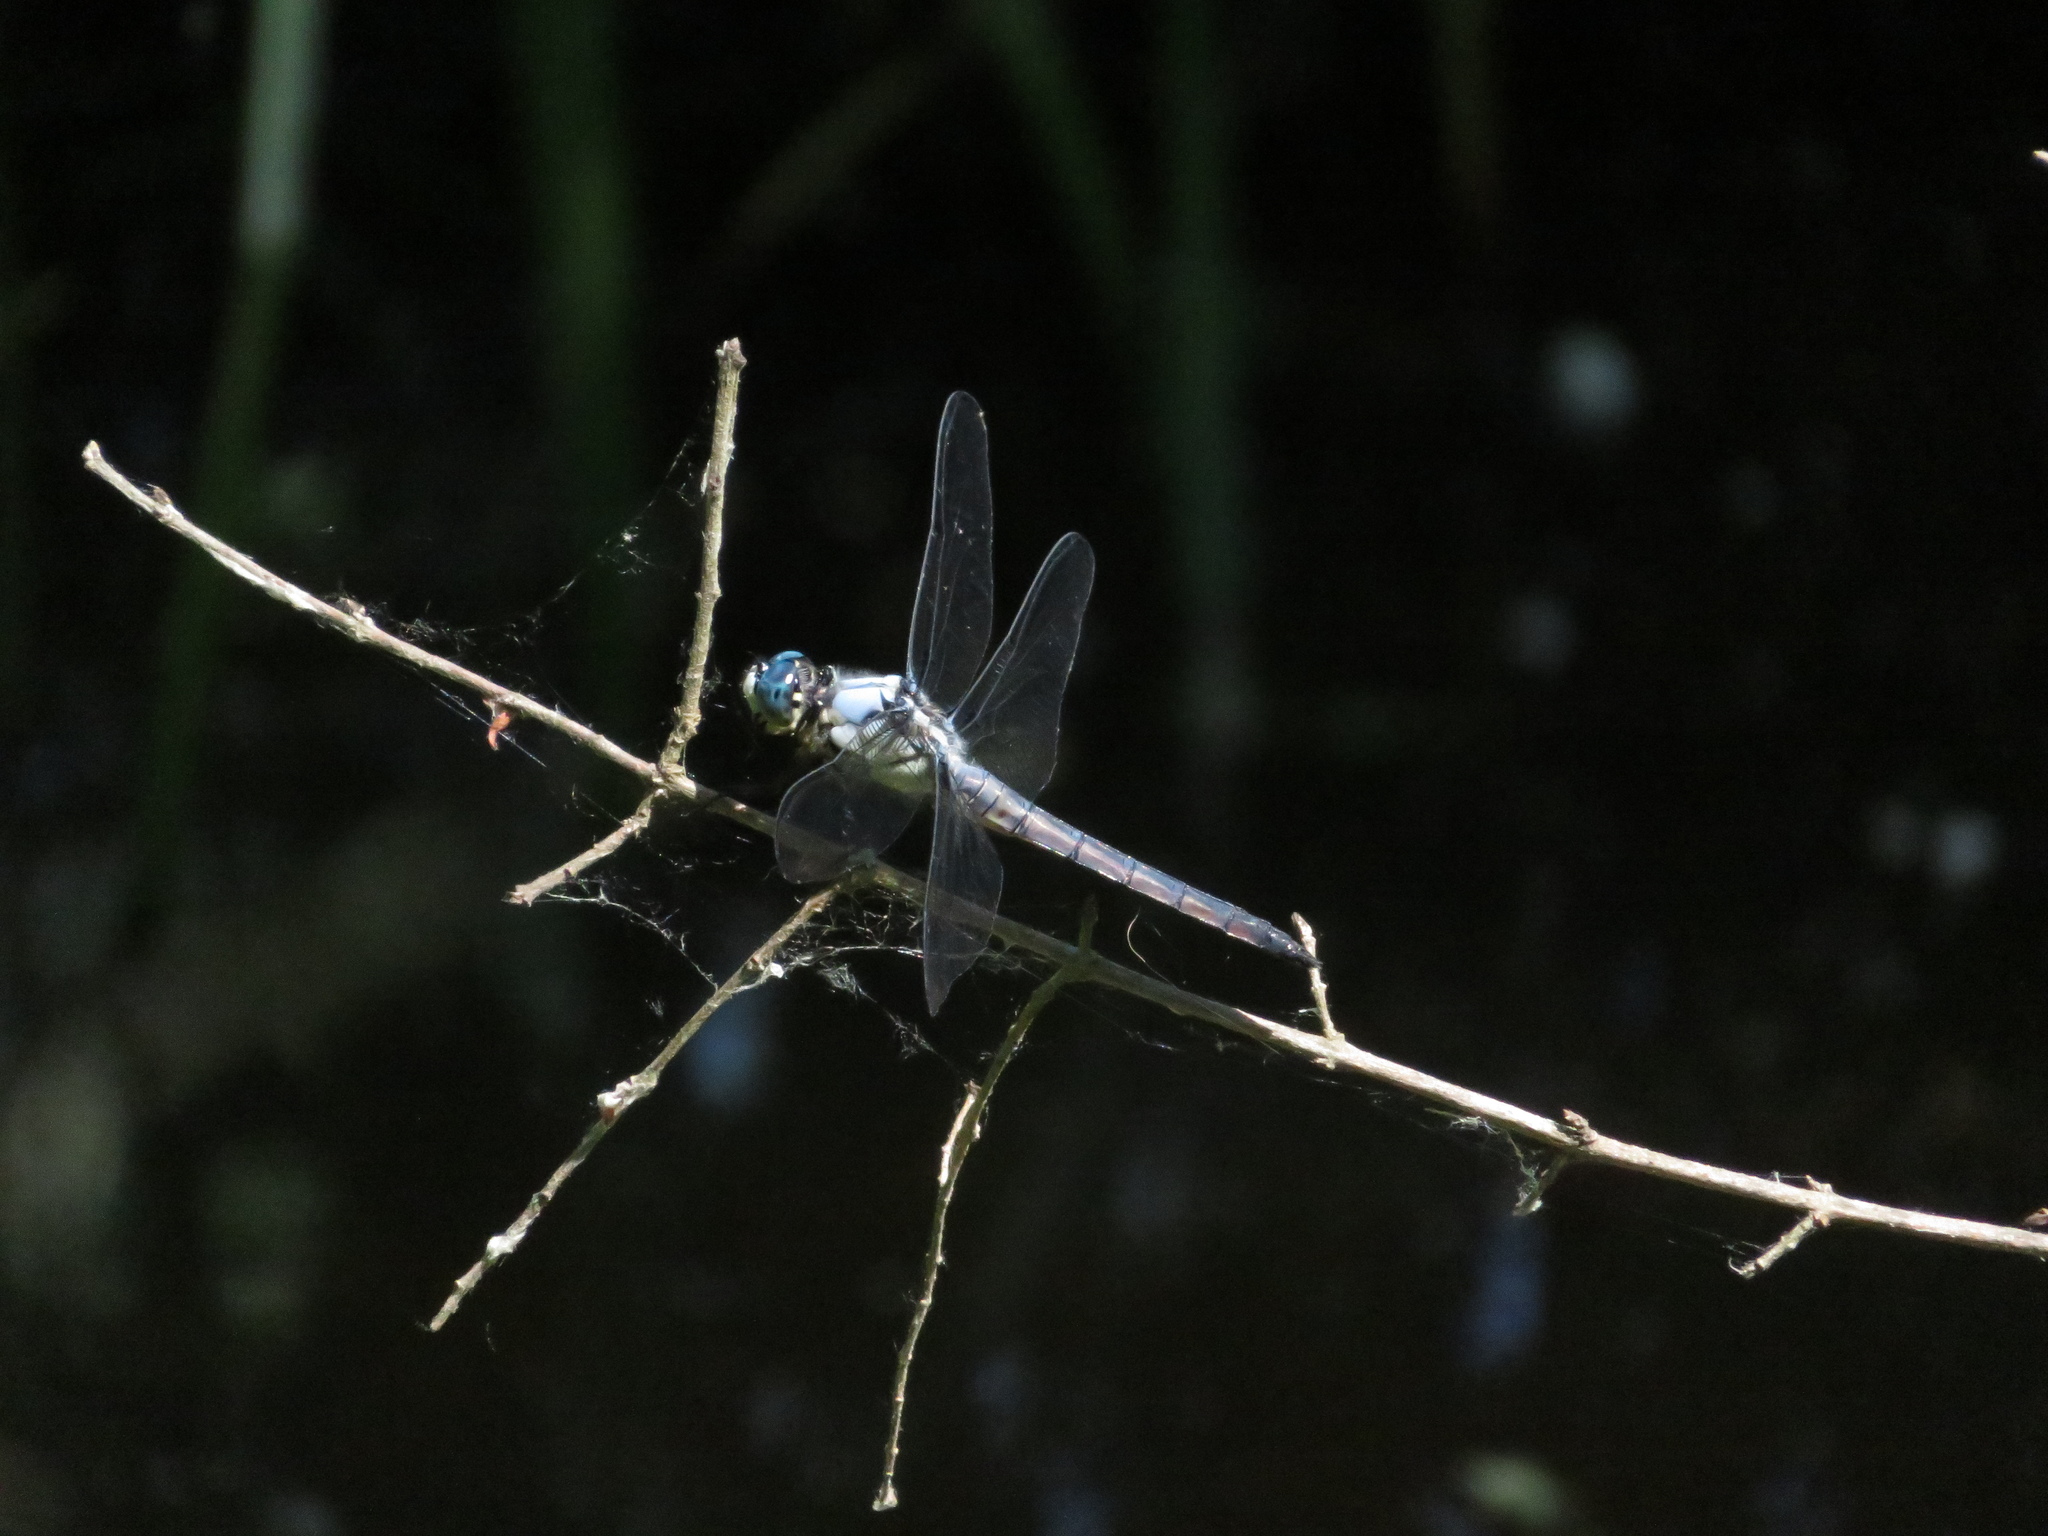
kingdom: Animalia
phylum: Arthropoda
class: Insecta
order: Odonata
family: Libellulidae
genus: Libellula
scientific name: Libellula vibrans
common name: Great blue skimmer
